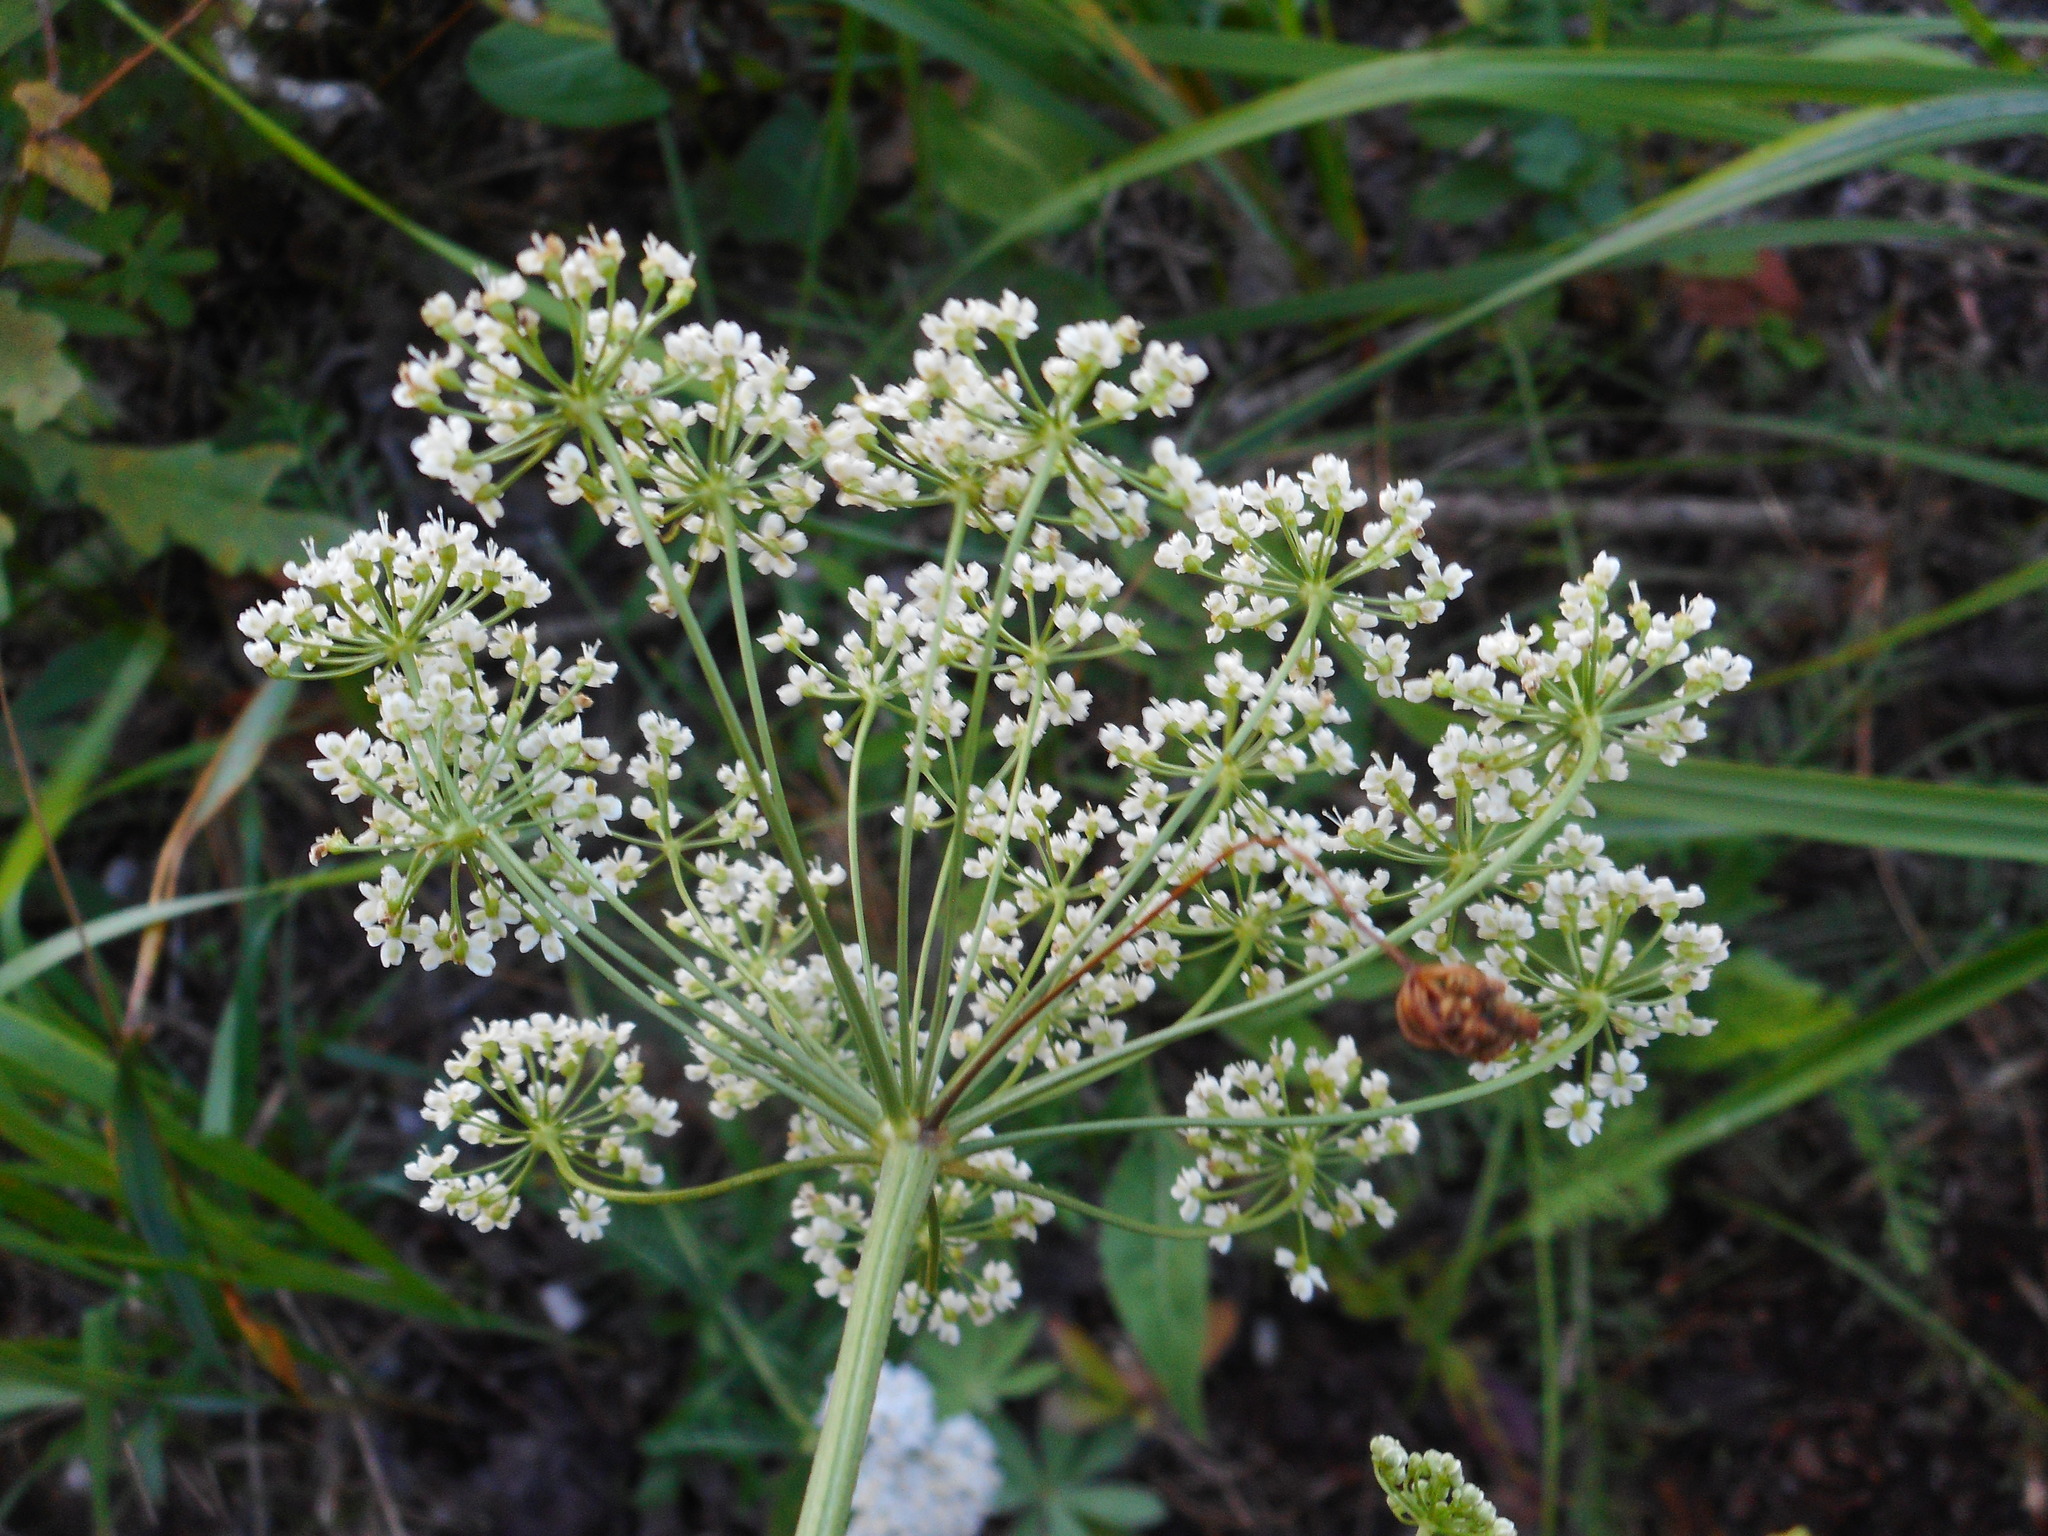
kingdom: Plantae
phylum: Tracheophyta
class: Magnoliopsida
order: Apiales
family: Apiaceae
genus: Pimpinella
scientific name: Pimpinella saxifraga
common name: Burnet-saxifrage
